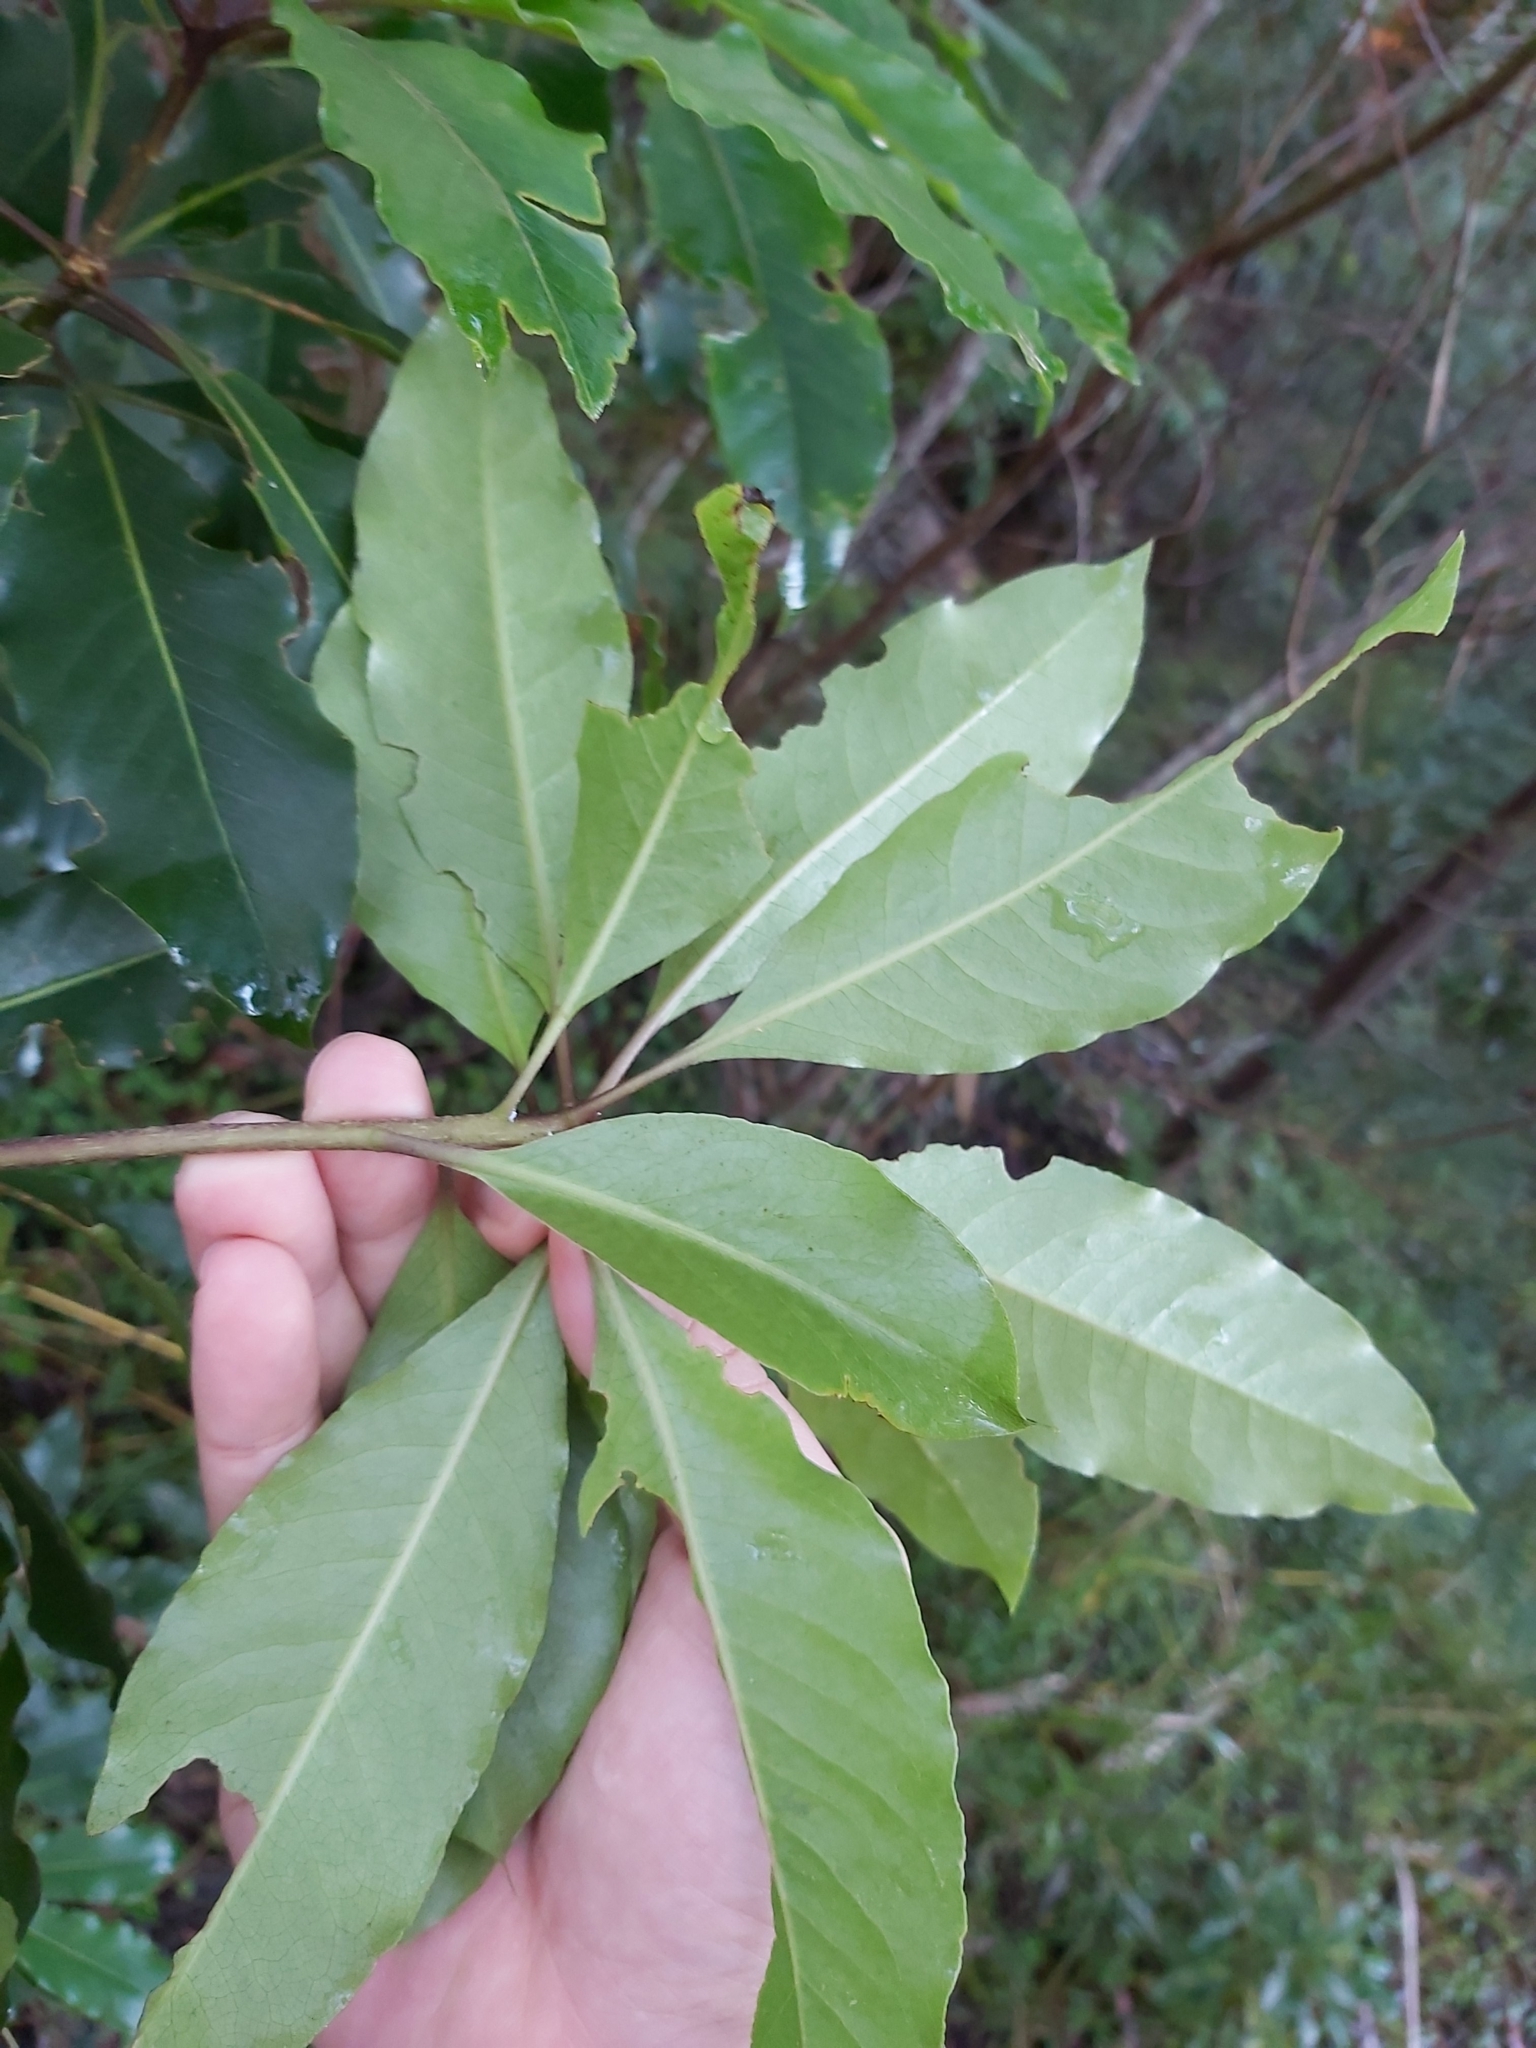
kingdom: Plantae
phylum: Tracheophyta
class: Magnoliopsida
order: Apiales
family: Pittosporaceae
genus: Pittosporum
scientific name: Pittosporum undulatum
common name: Australian cheesewood
